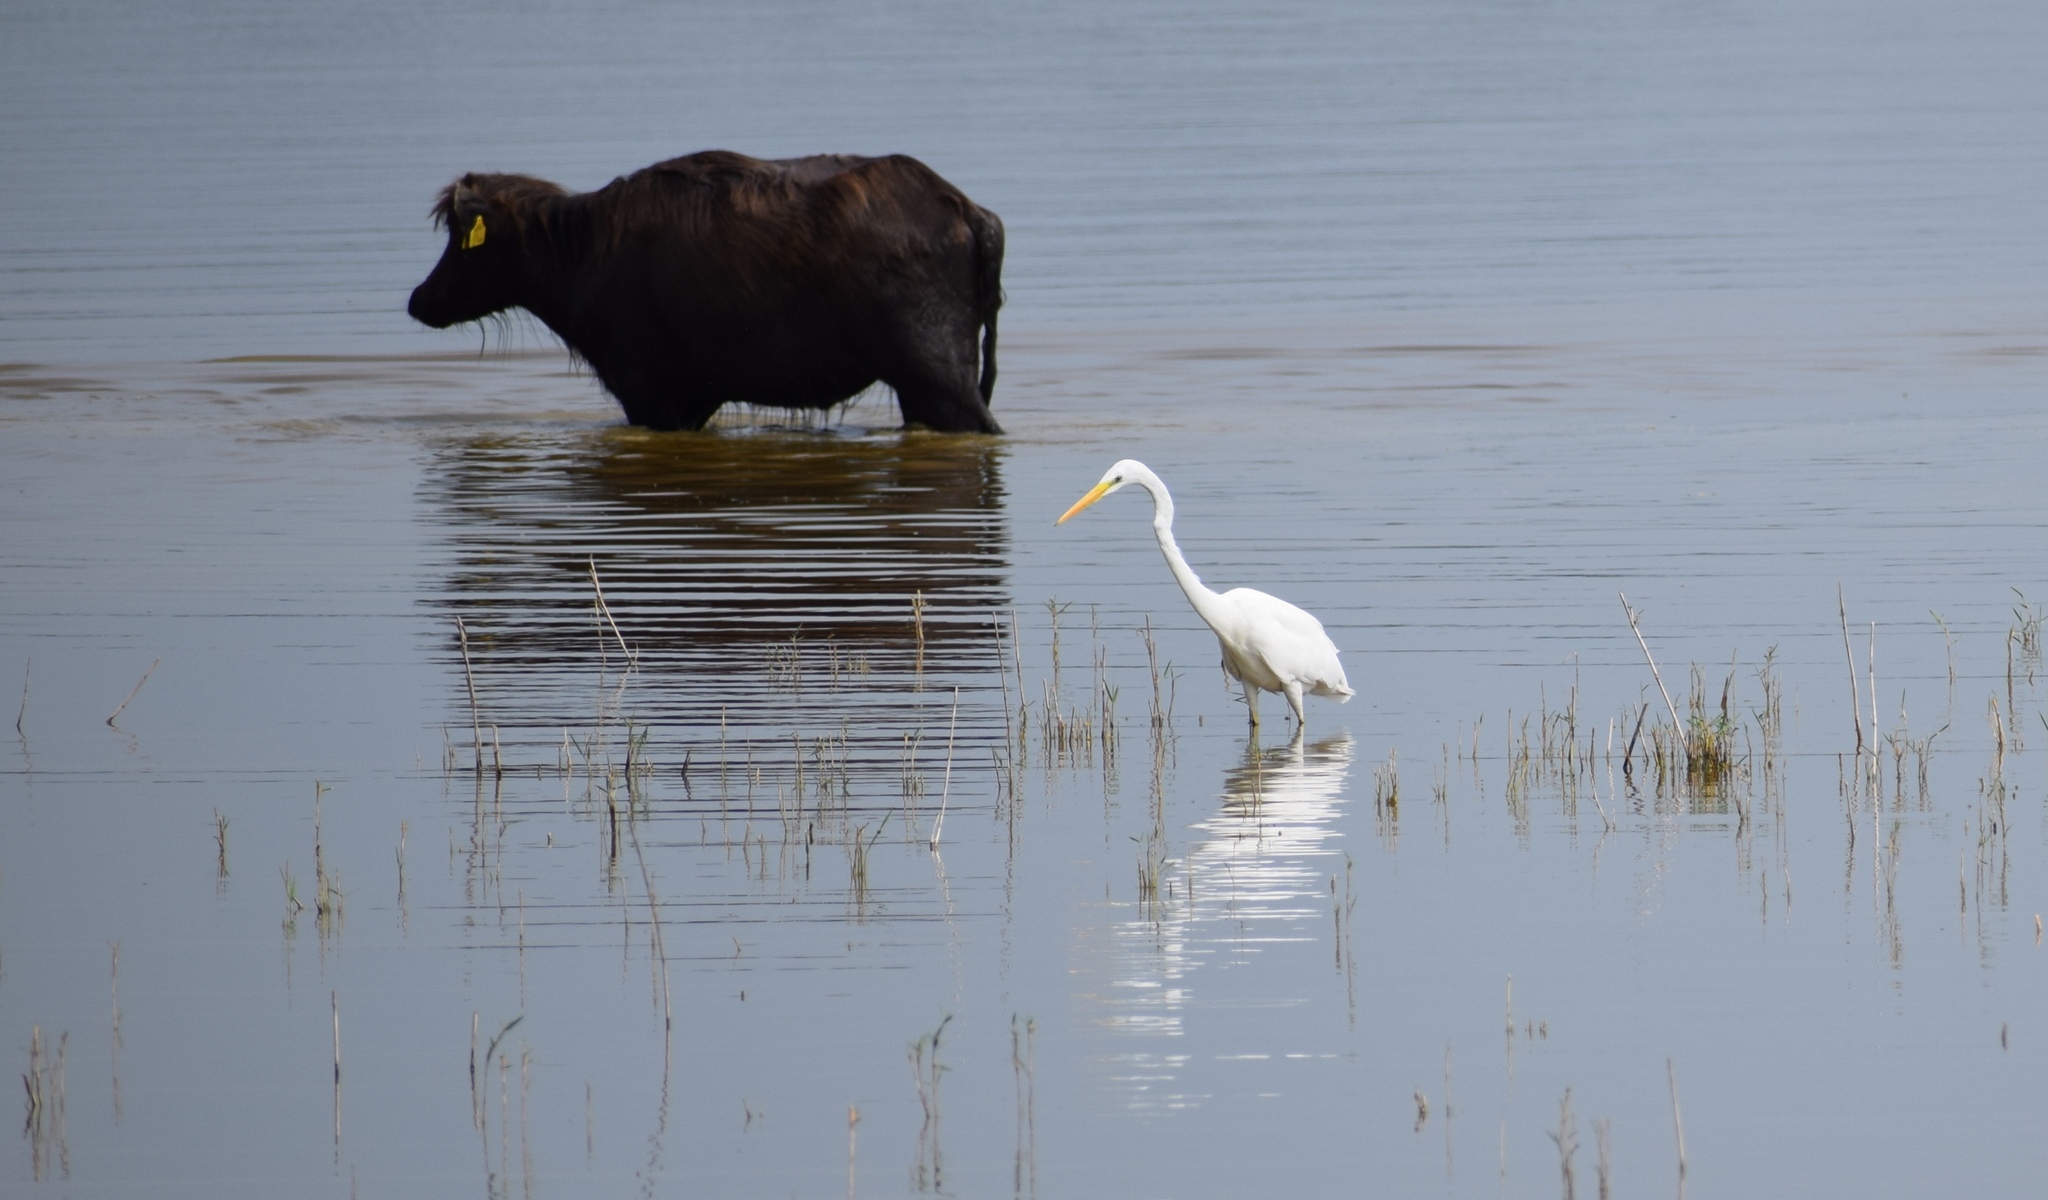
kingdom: Animalia
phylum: Chordata
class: Aves
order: Pelecaniformes
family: Ardeidae
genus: Ardea
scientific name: Ardea alba
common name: Great egret
